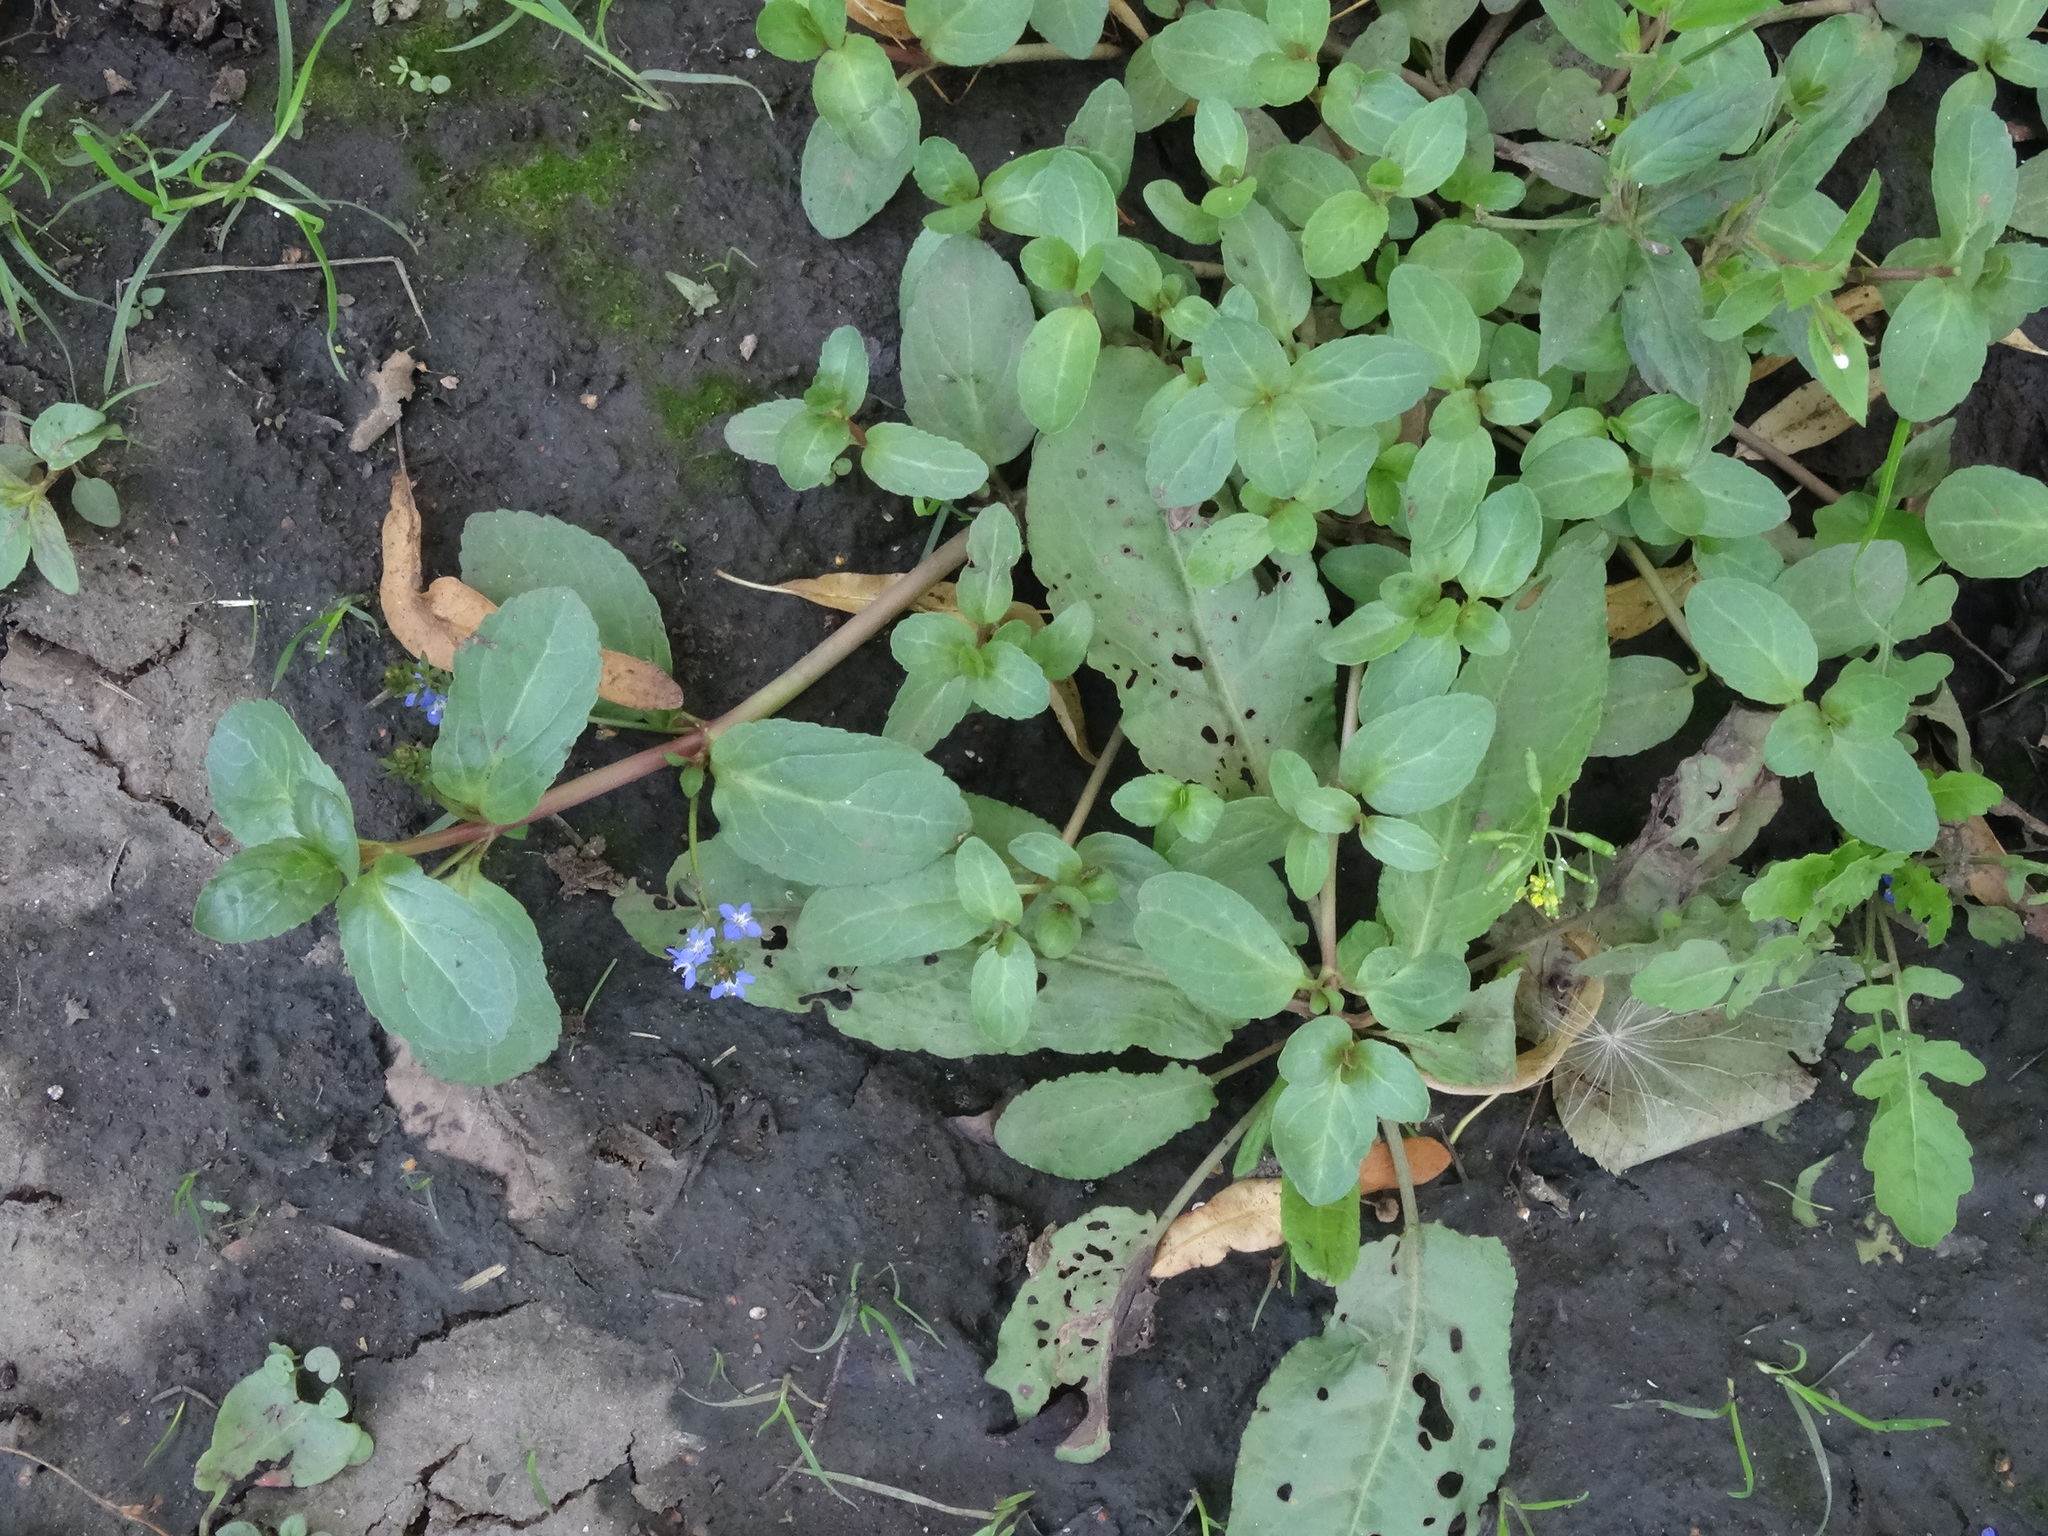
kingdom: Plantae
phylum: Tracheophyta
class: Magnoliopsida
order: Lamiales
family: Plantaginaceae
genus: Veronica
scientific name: Veronica beccabunga
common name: Brooklime
